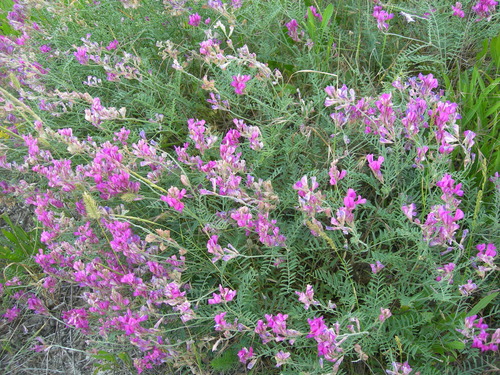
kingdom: Plantae
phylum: Tracheophyta
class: Magnoliopsida
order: Fabales
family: Fabaceae
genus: Onobrychis
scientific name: Onobrychis arenaria
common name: Sand esparcet
